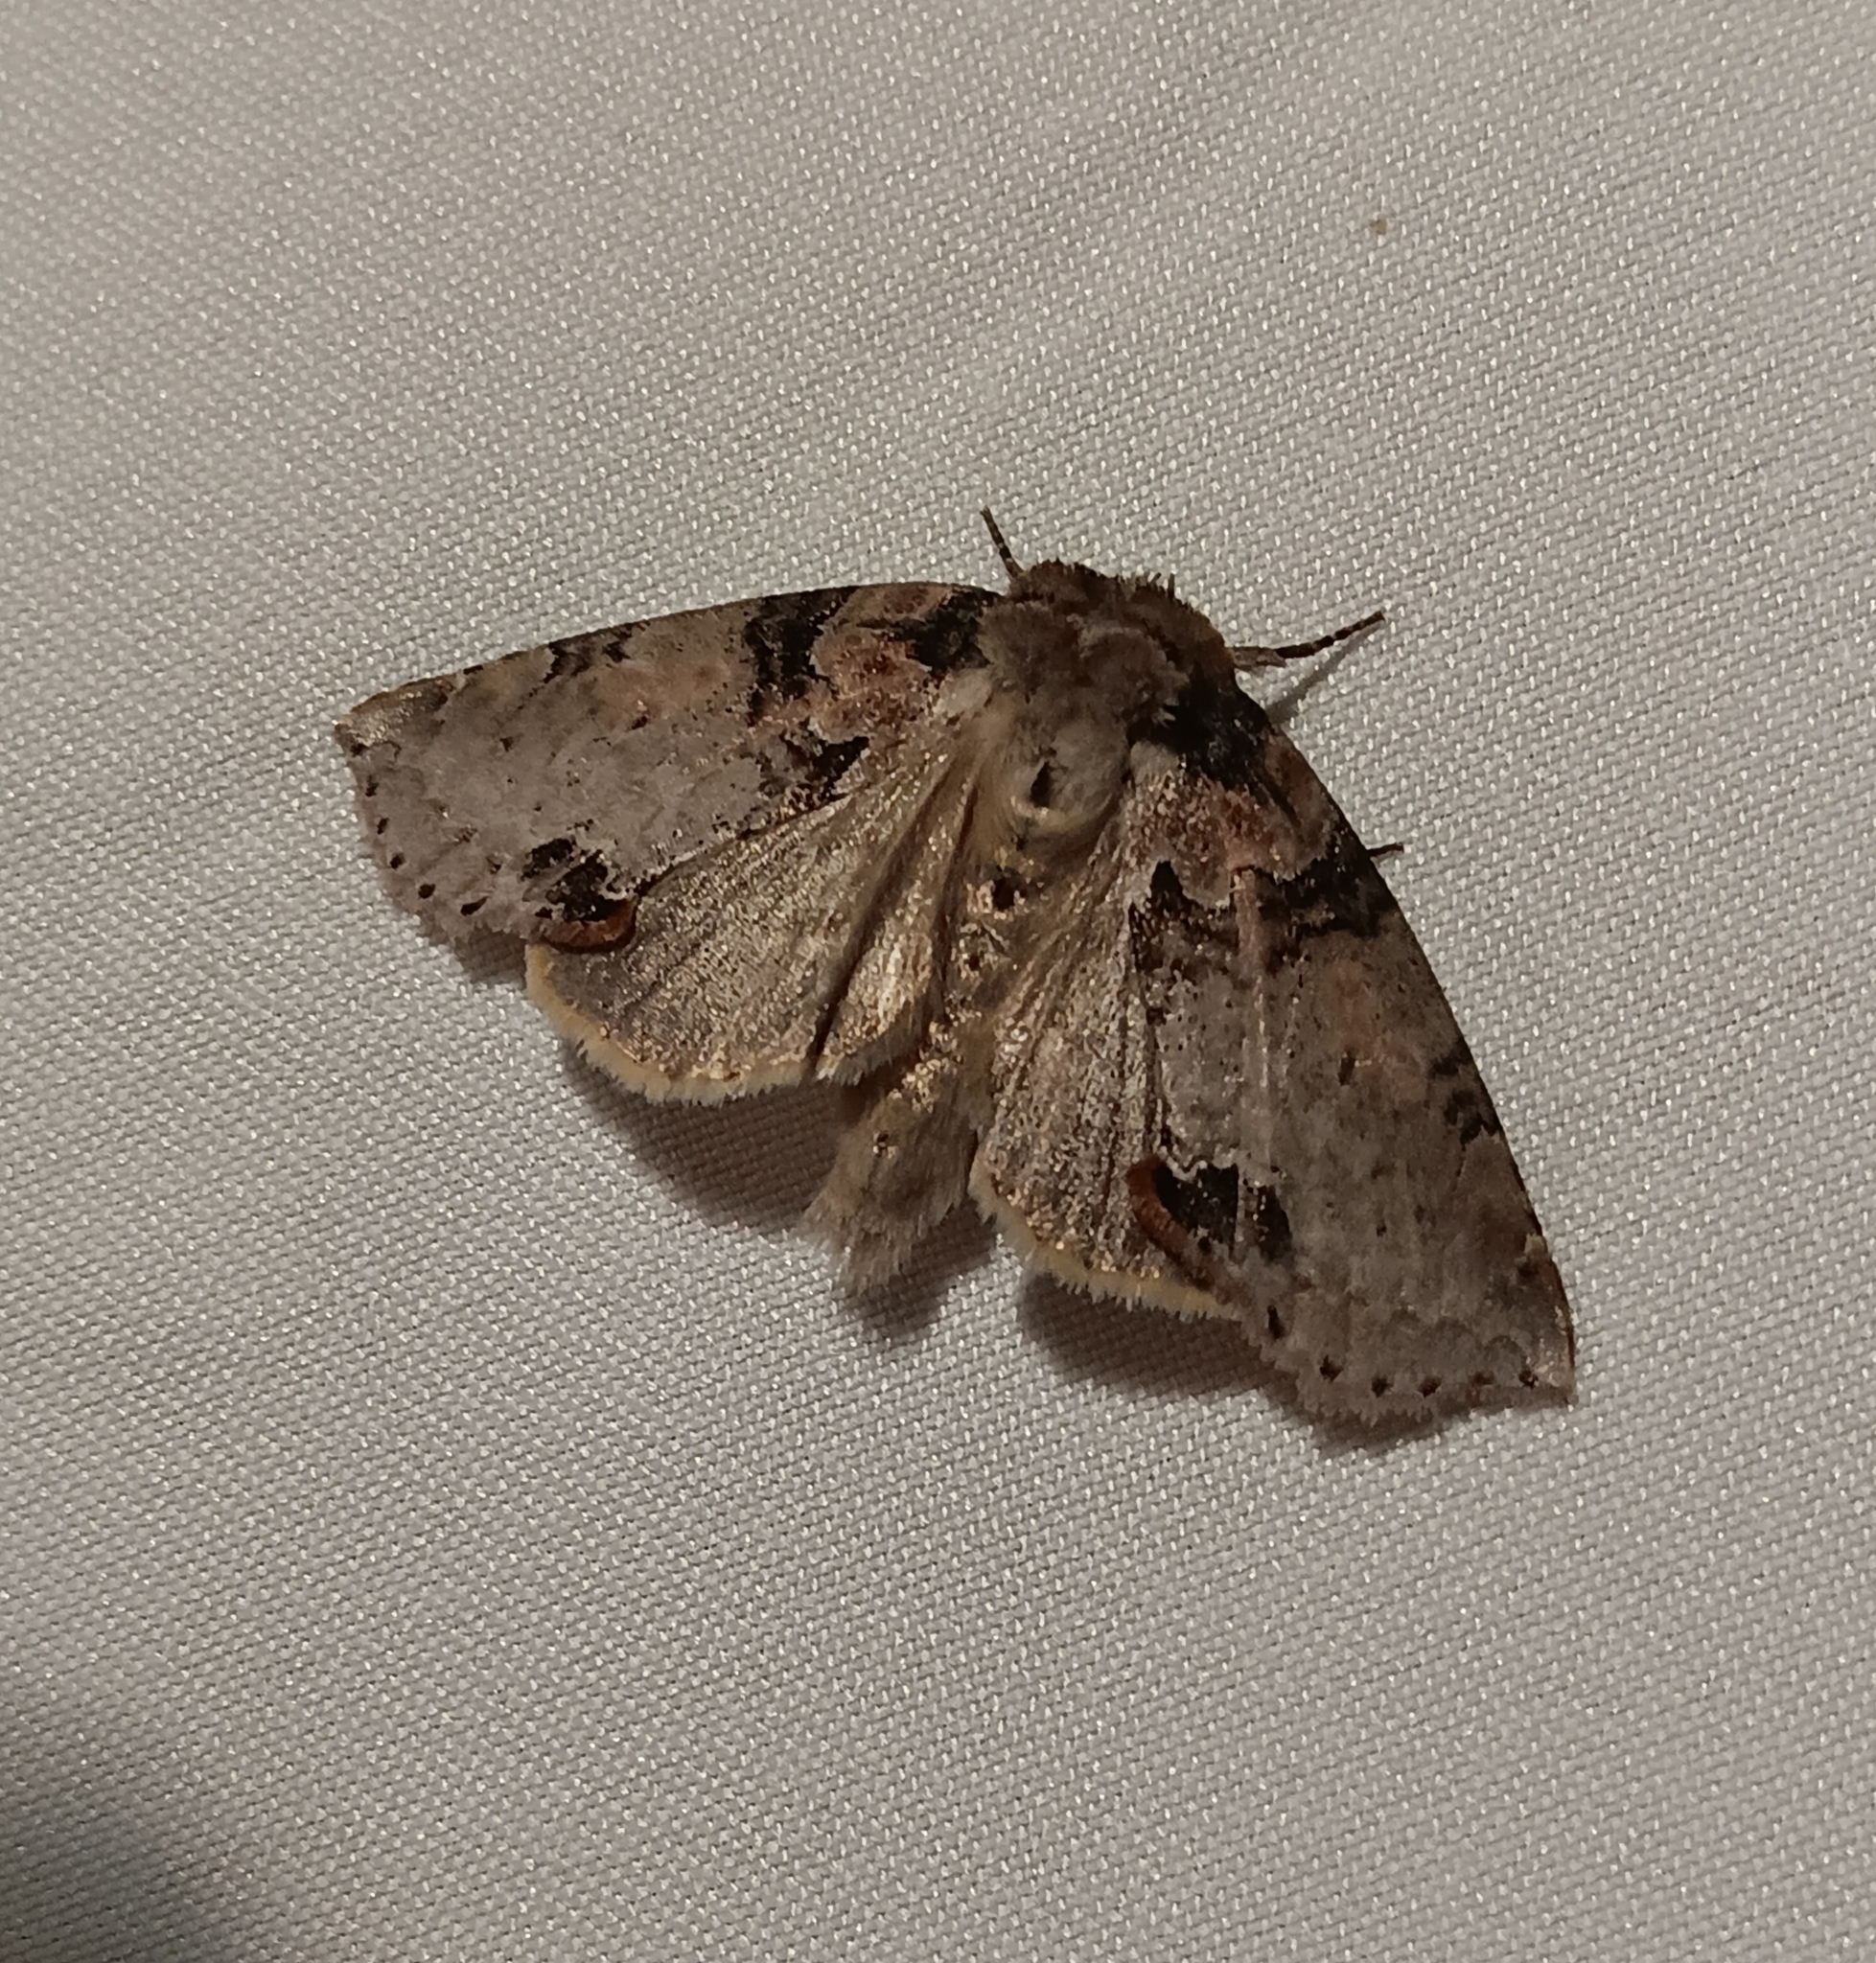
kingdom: Animalia
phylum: Arthropoda
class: Insecta
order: Lepidoptera
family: Drepanidae
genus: Pseudothyatira
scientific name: Pseudothyatira cymatophoroides
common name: Tufted thyatirid moth
